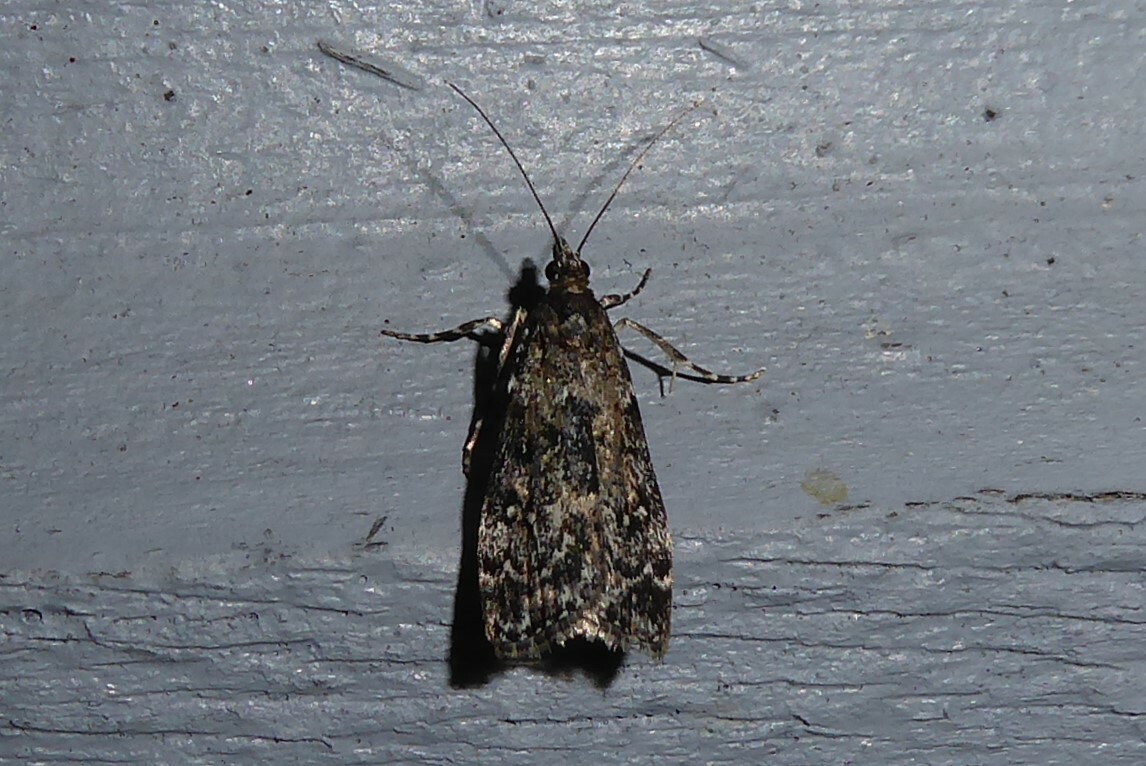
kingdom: Animalia
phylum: Arthropoda
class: Insecta
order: Lepidoptera
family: Crambidae
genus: Eudonia
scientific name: Eudonia philerga
